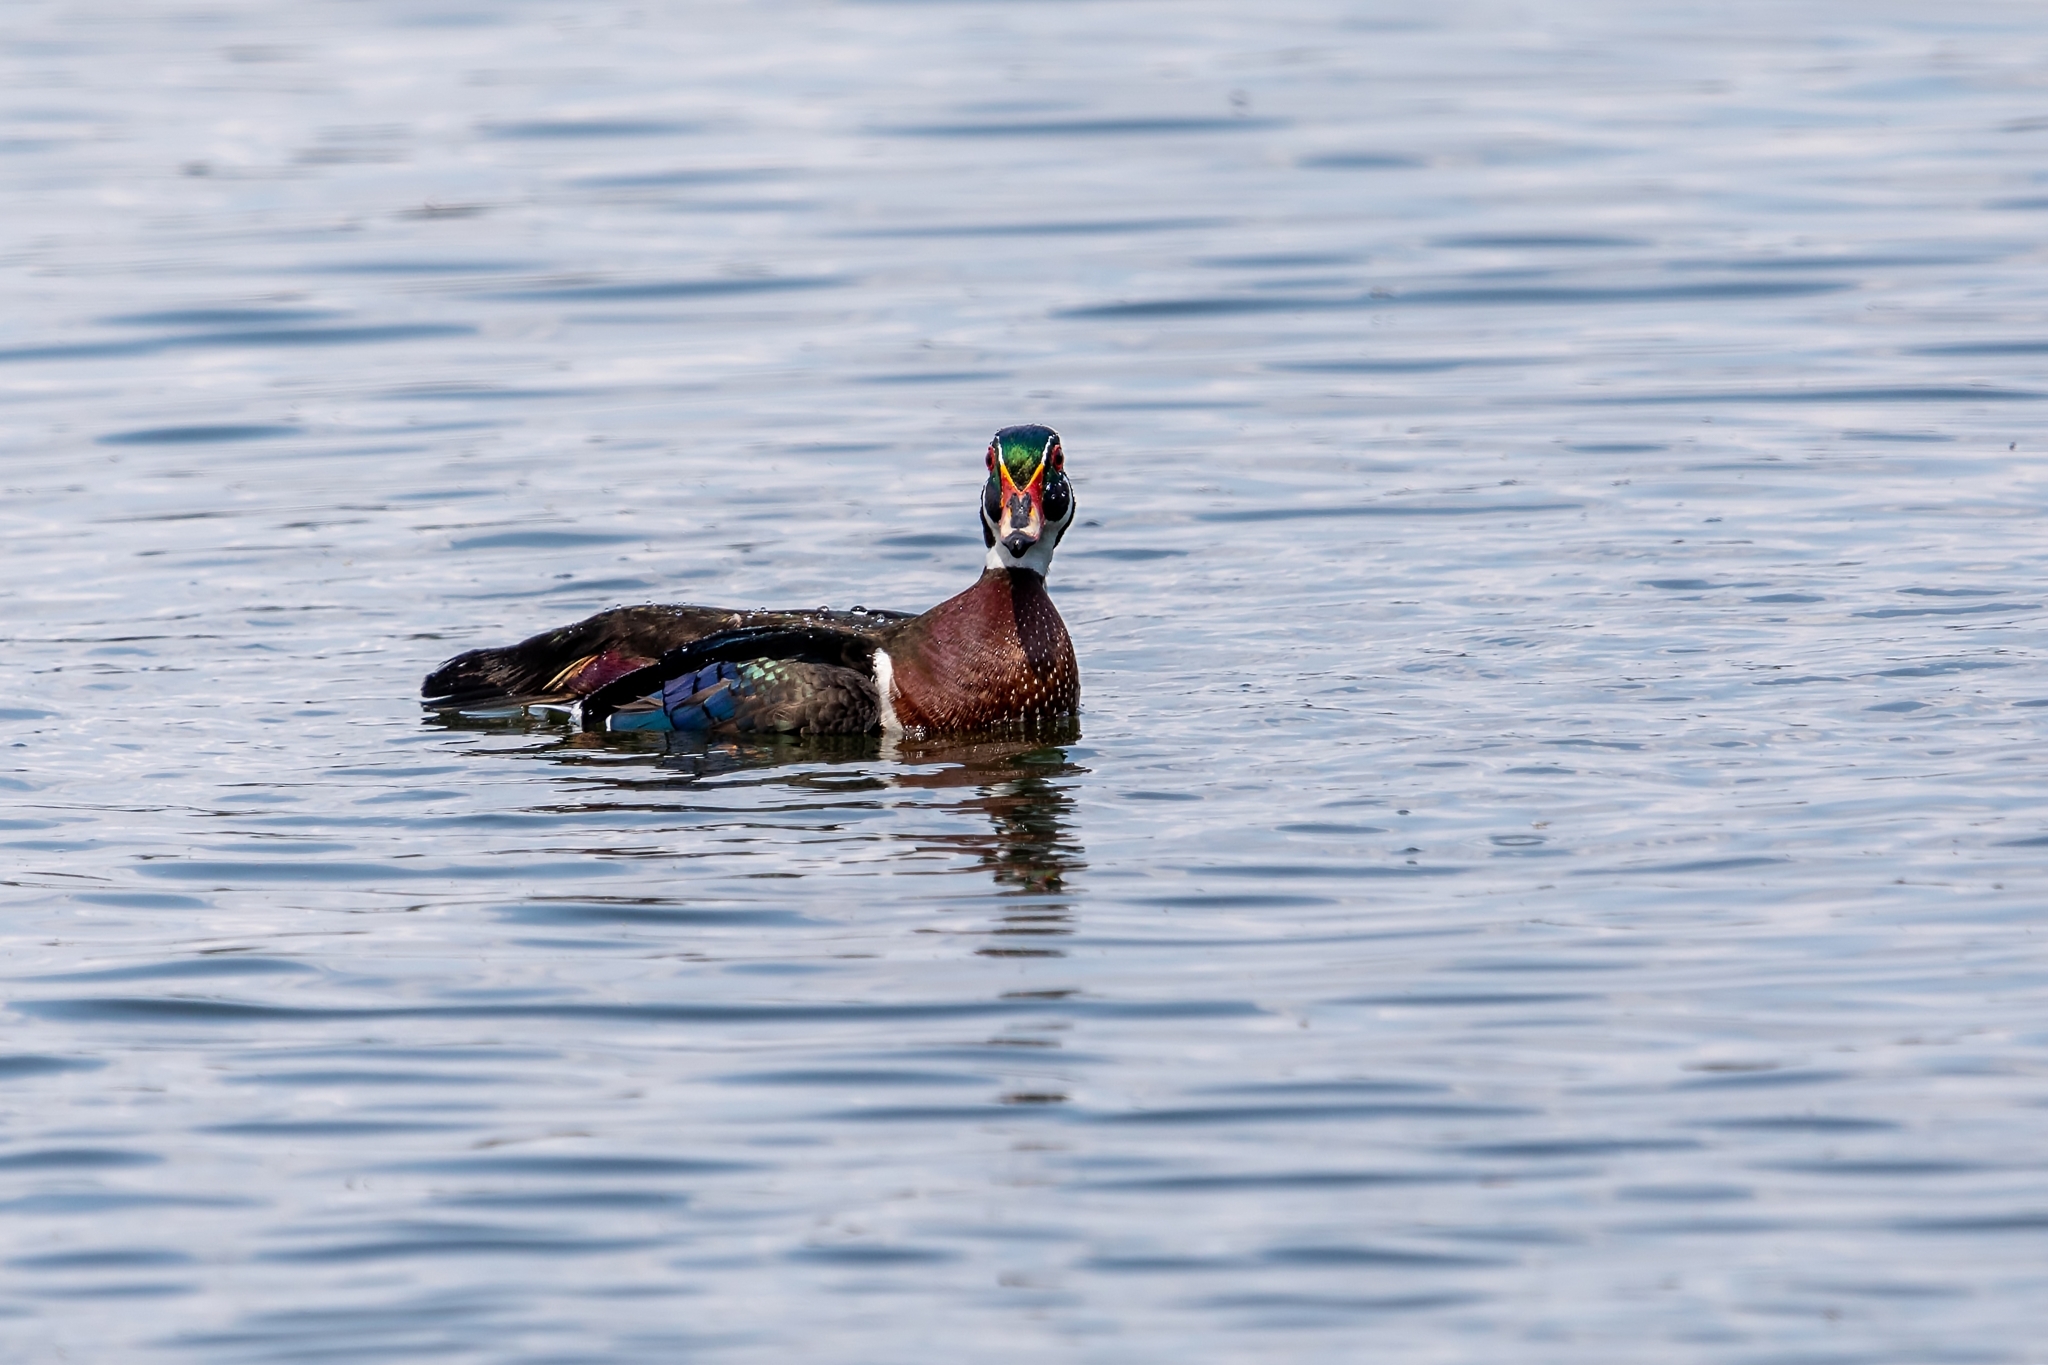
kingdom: Animalia
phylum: Chordata
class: Aves
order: Anseriformes
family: Anatidae
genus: Aix
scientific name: Aix sponsa
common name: Wood duck
